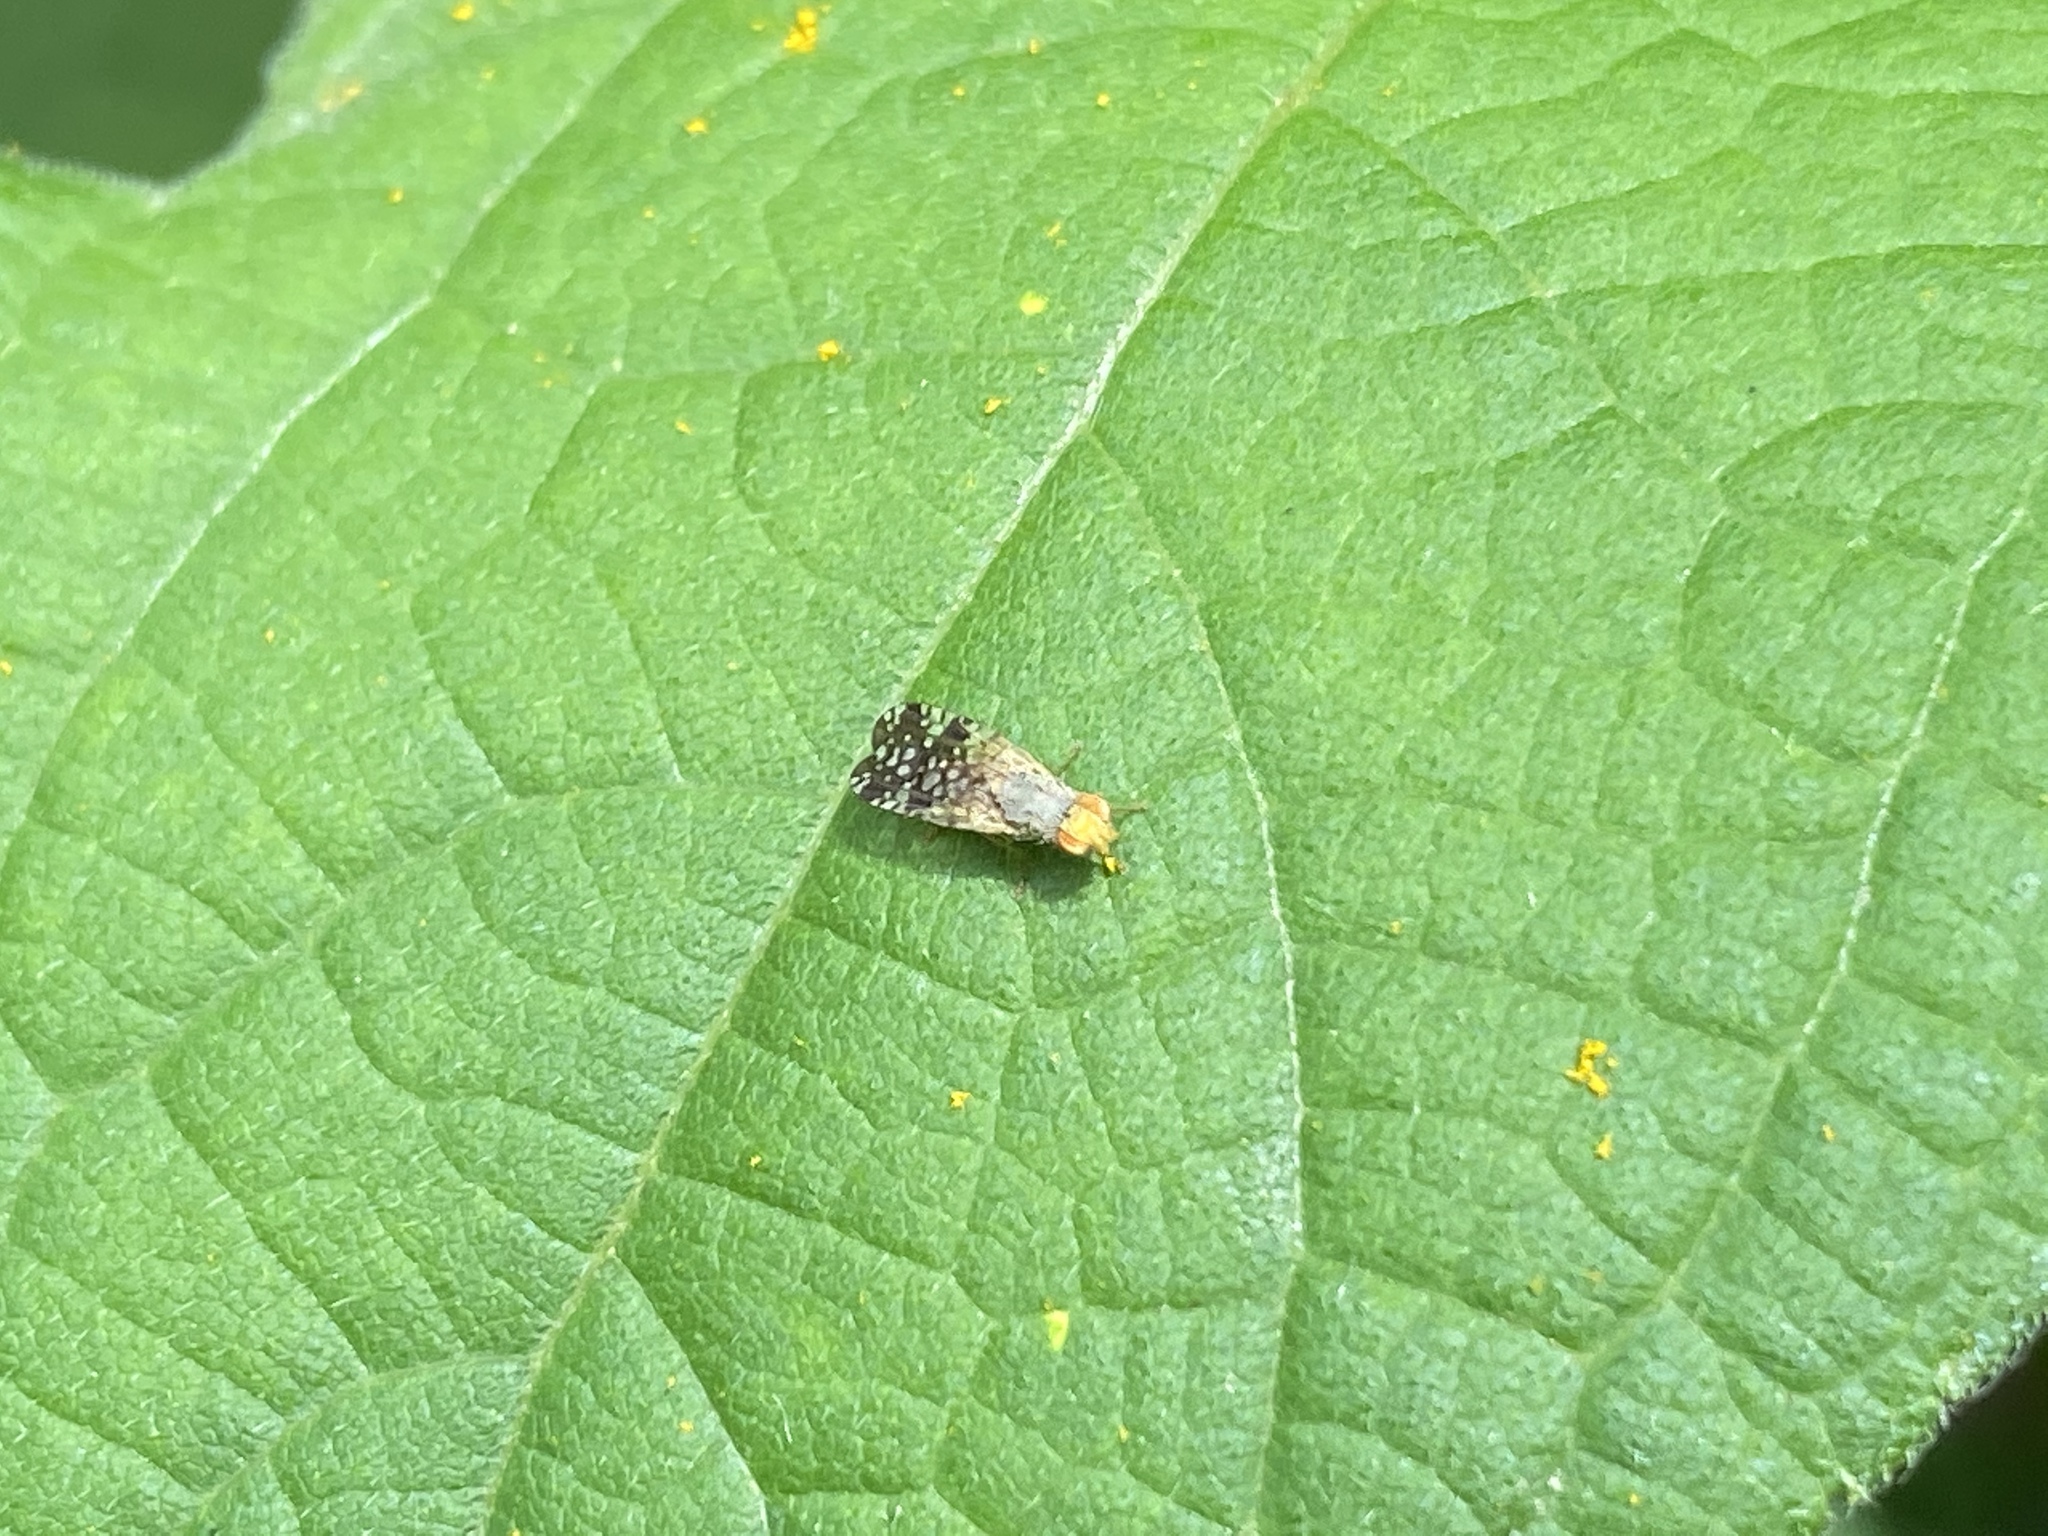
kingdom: Animalia
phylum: Arthropoda
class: Insecta
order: Diptera
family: Tephritidae
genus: Neotephritis
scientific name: Neotephritis finalis
